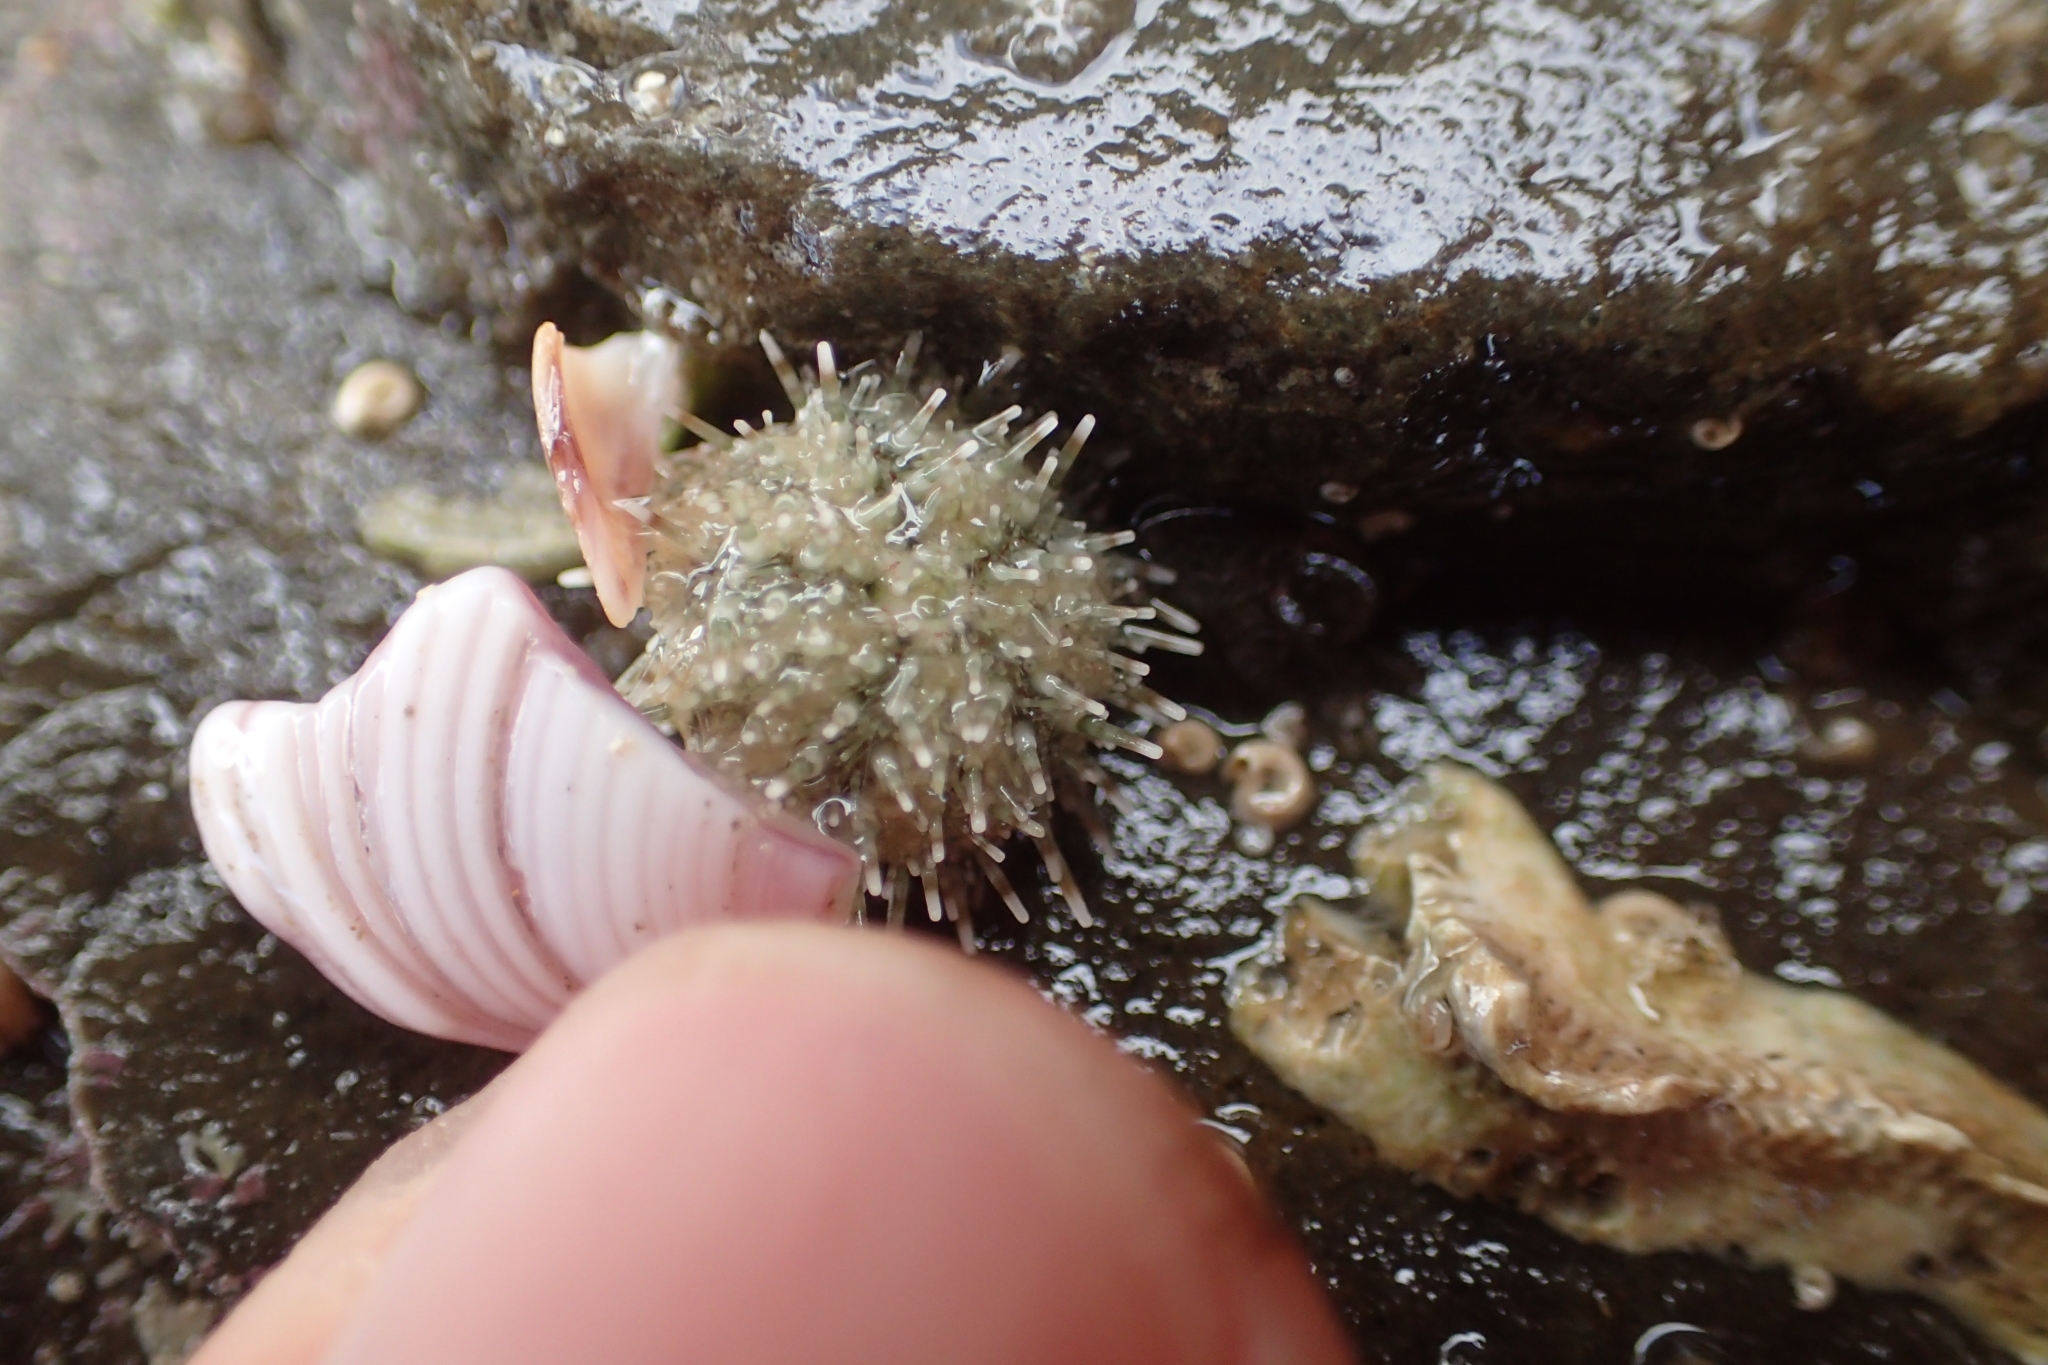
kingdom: Animalia
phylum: Echinodermata
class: Echinoidea
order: Camarodonta
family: Echinometridae
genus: Evechinus
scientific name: Evechinus chloroticus
